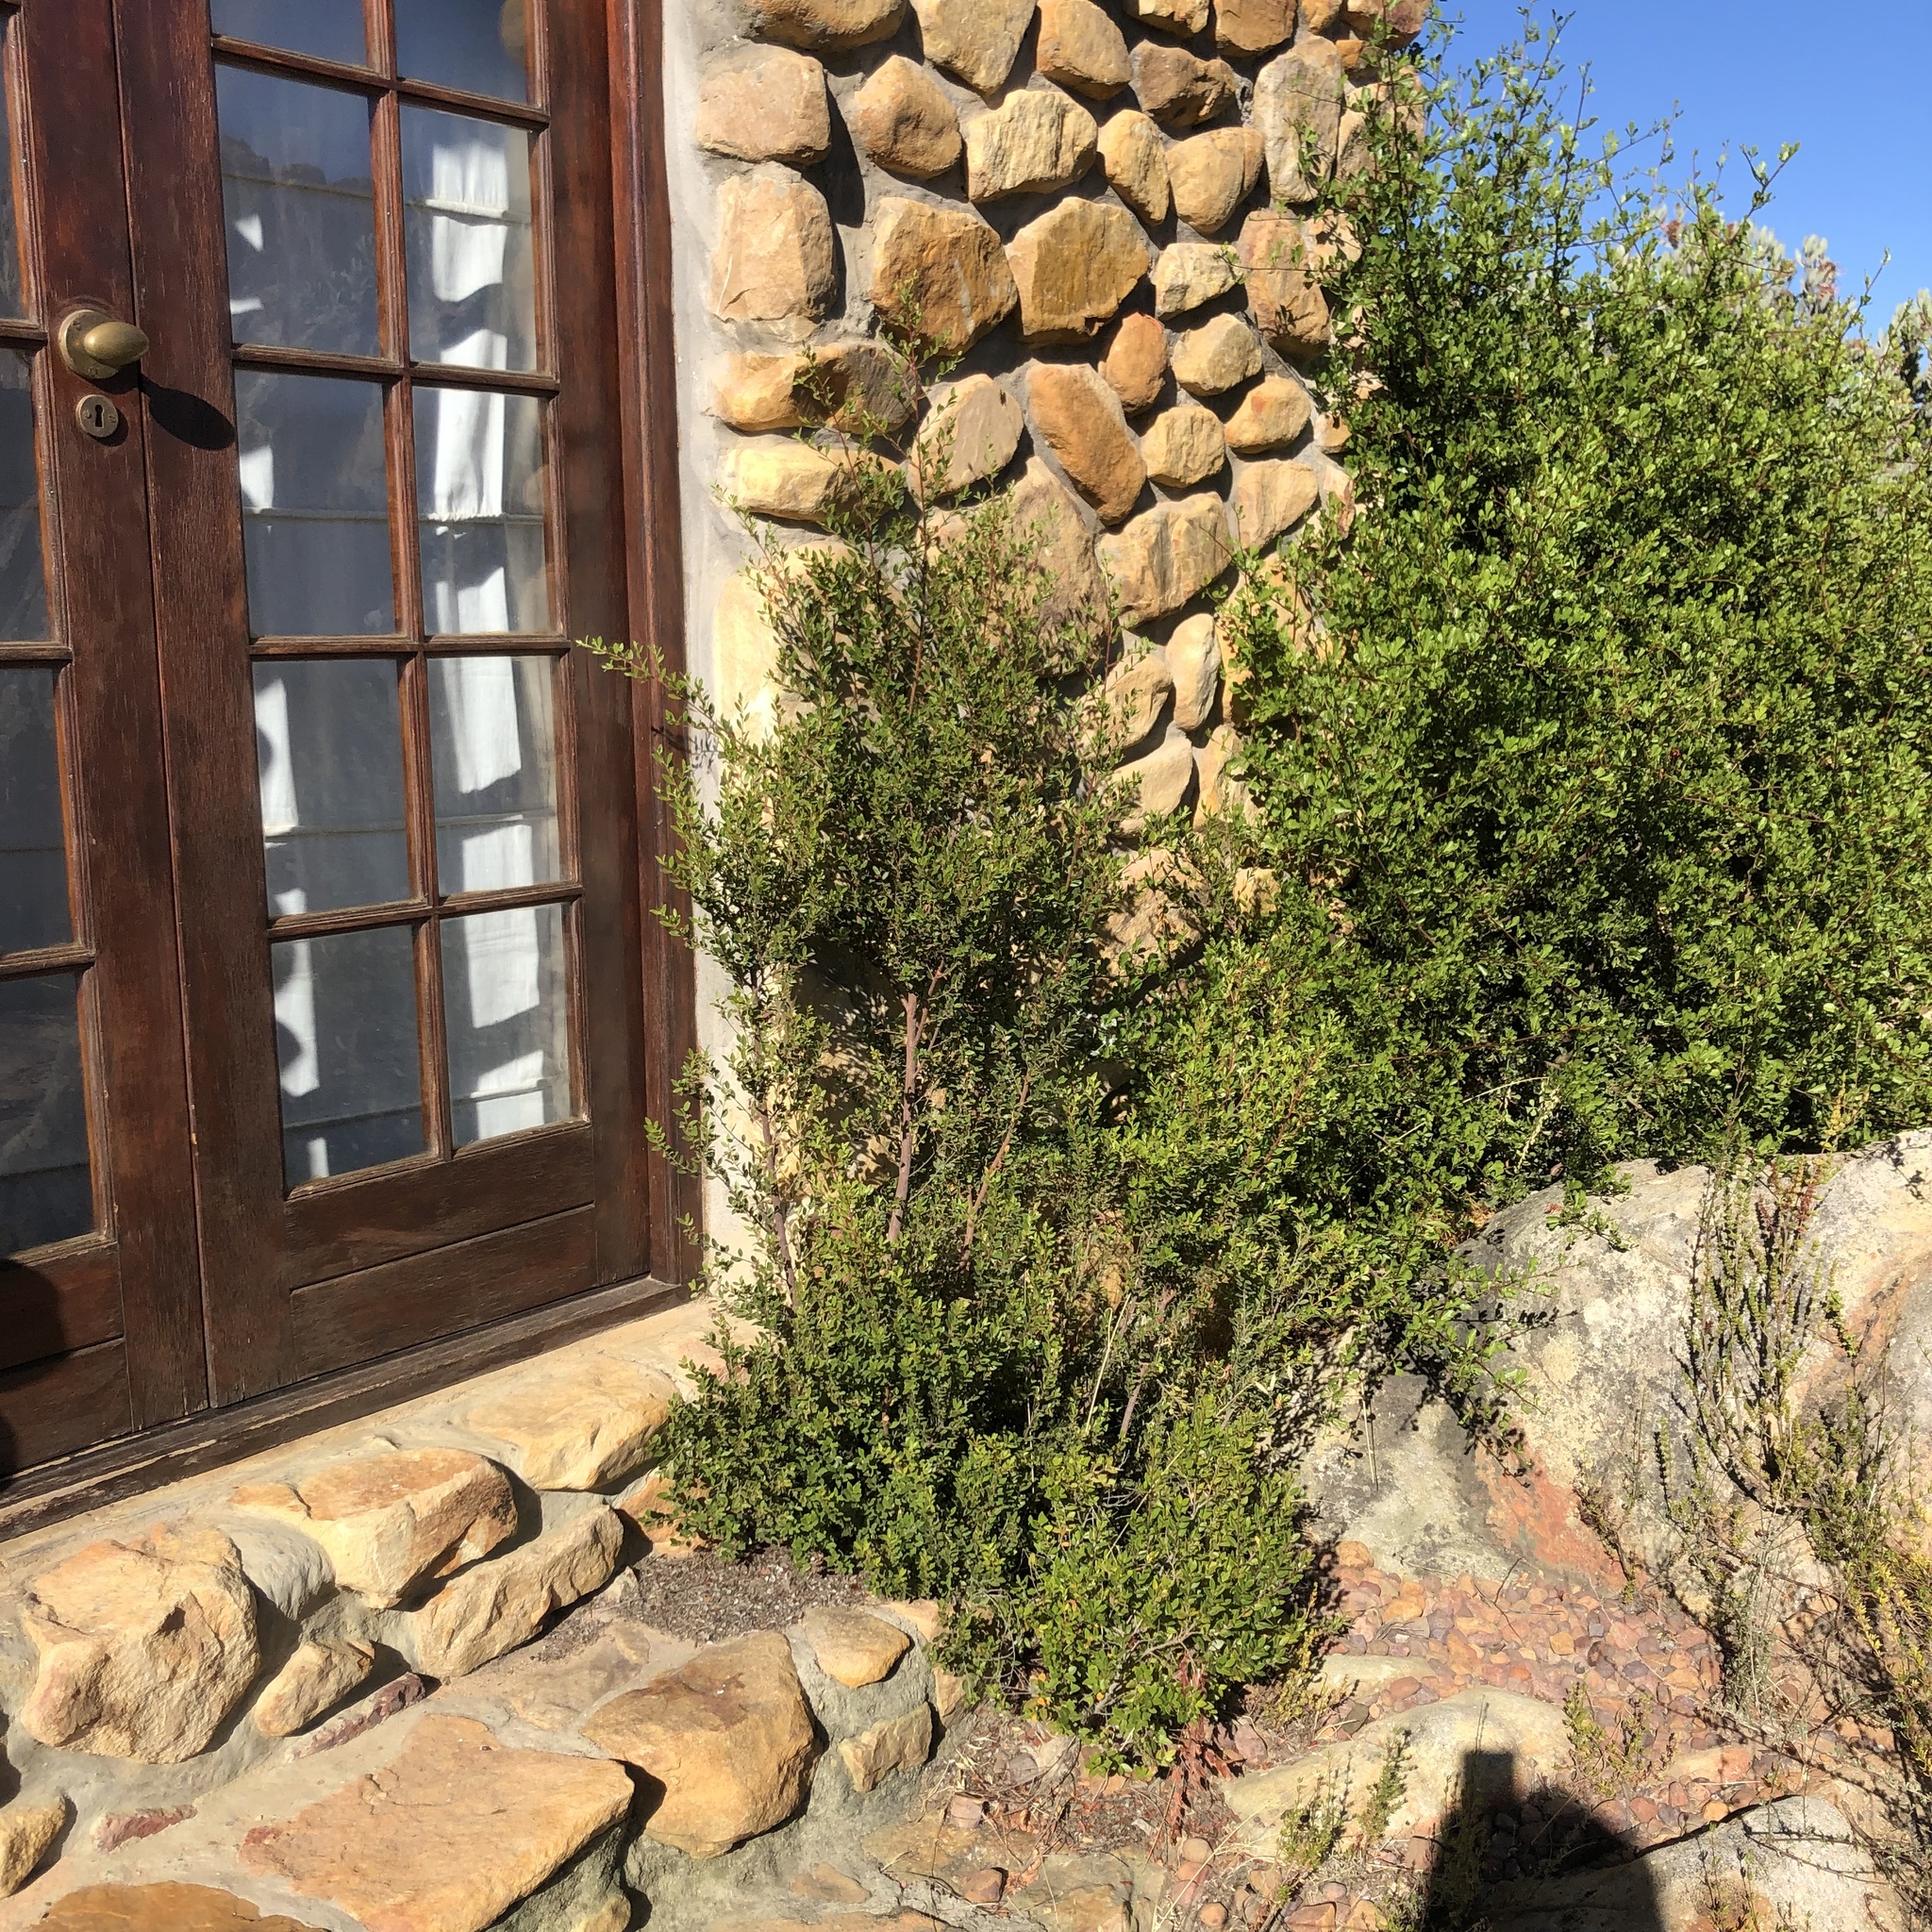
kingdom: Plantae
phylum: Tracheophyta
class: Magnoliopsida
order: Sapindales
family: Anacardiaceae
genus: Searsia
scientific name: Searsia undulata
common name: Namaqua kunibush
